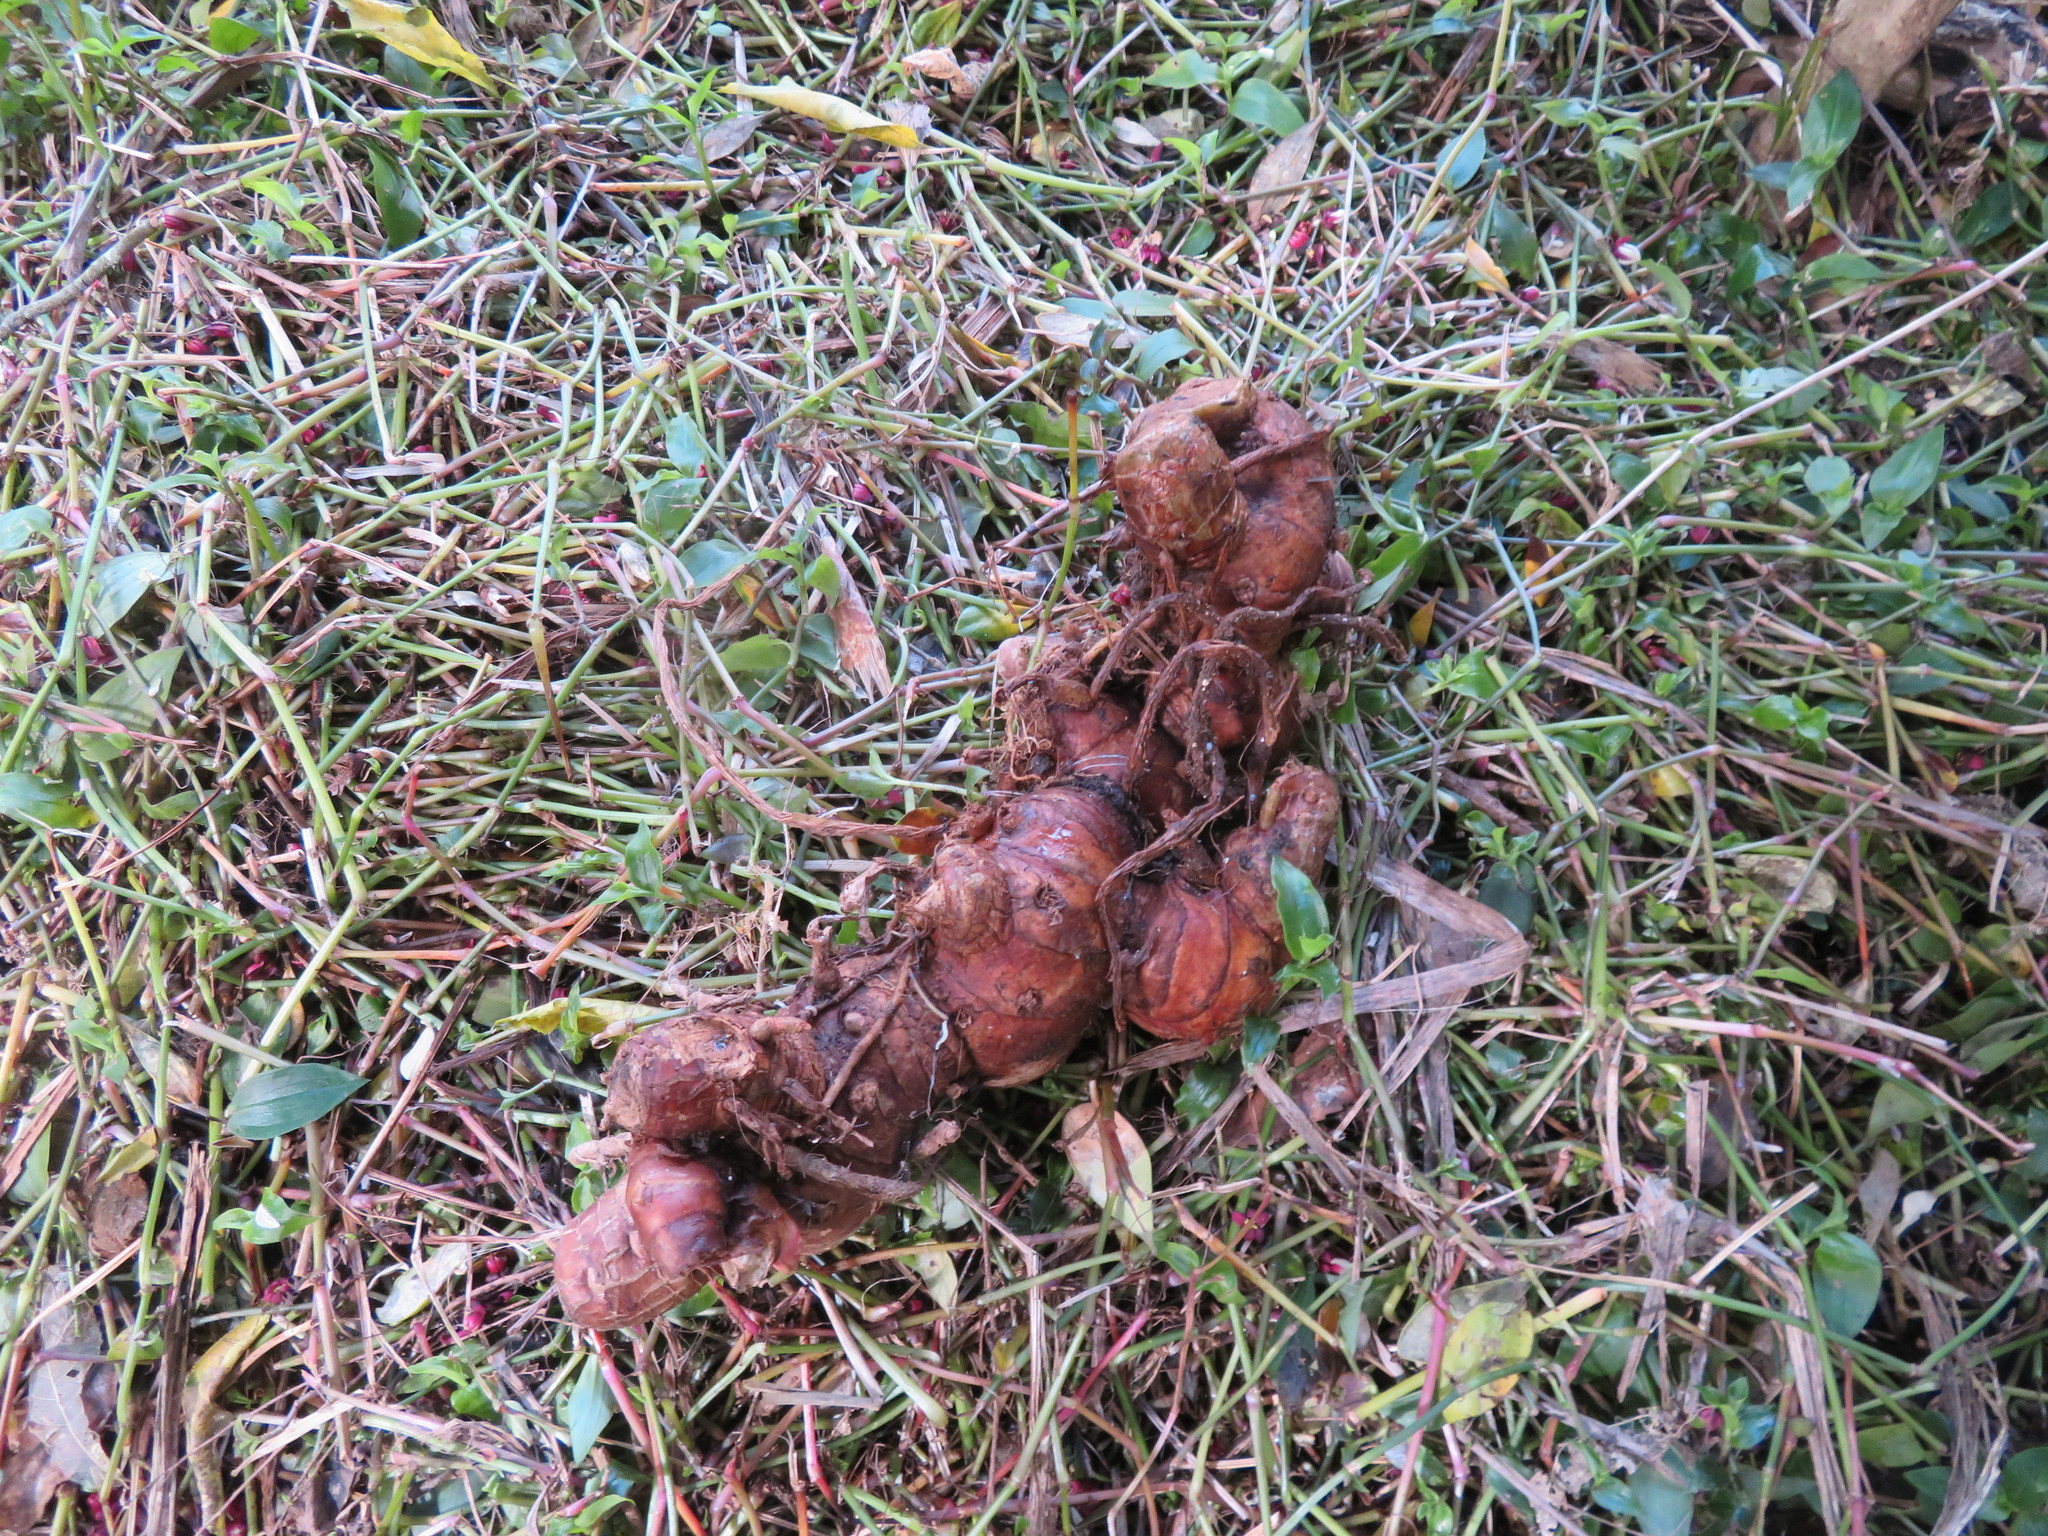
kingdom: Plantae
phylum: Tracheophyta
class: Liliopsida
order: Zingiberales
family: Zingiberaceae
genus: Hedychium
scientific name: Hedychium gardnerianum
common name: Himalayan ginger
